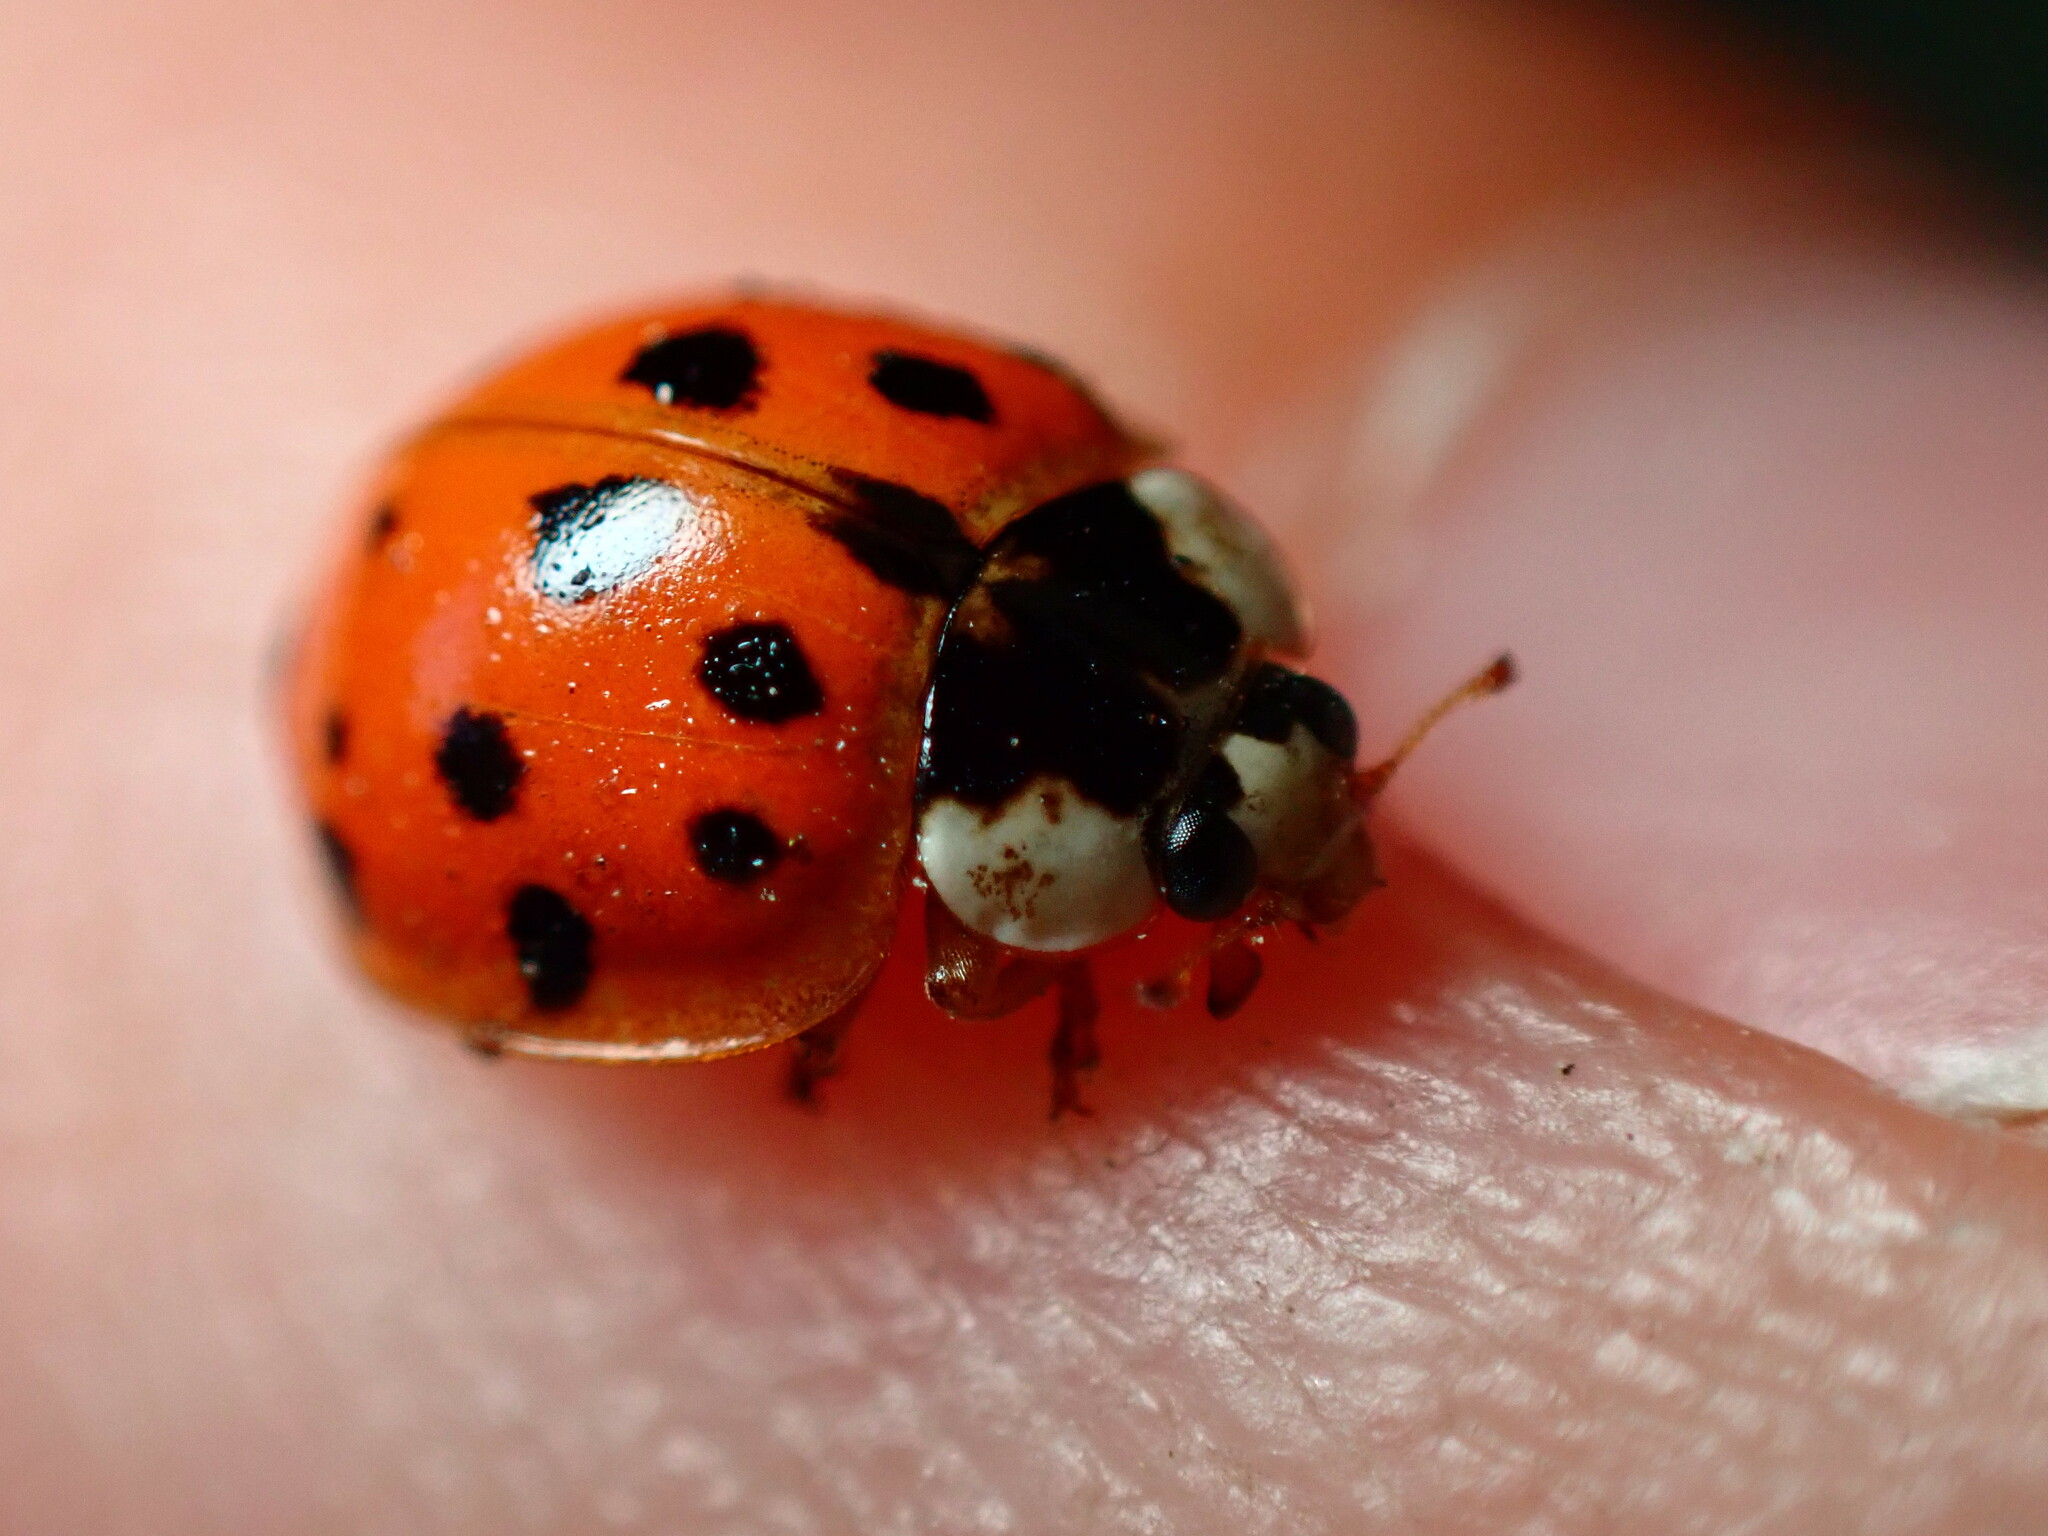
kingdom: Animalia
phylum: Arthropoda
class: Insecta
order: Coleoptera
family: Coccinellidae
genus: Harmonia
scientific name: Harmonia axyridis
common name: Harlequin ladybird
